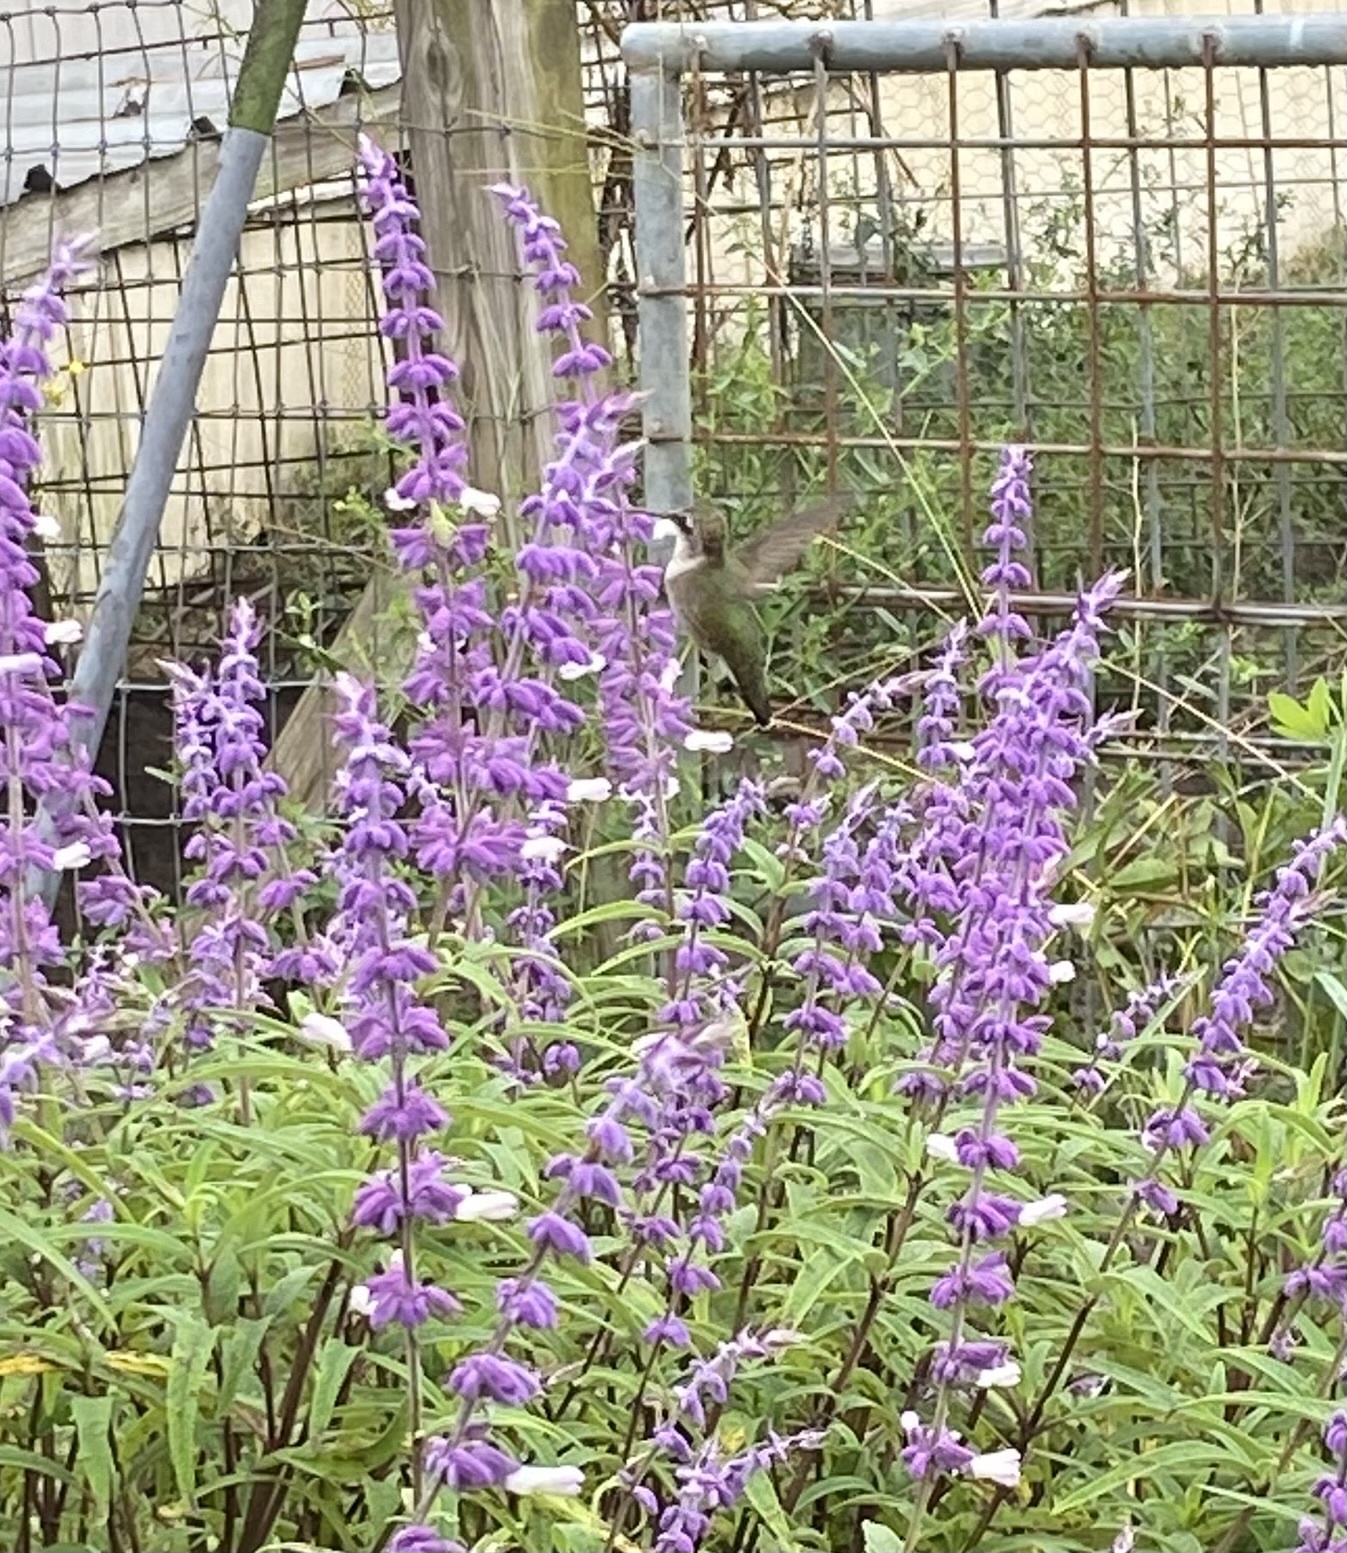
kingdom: Animalia
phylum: Chordata
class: Aves
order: Apodiformes
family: Trochilidae
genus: Archilochus
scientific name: Archilochus colubris
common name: Ruby-throated hummingbird
